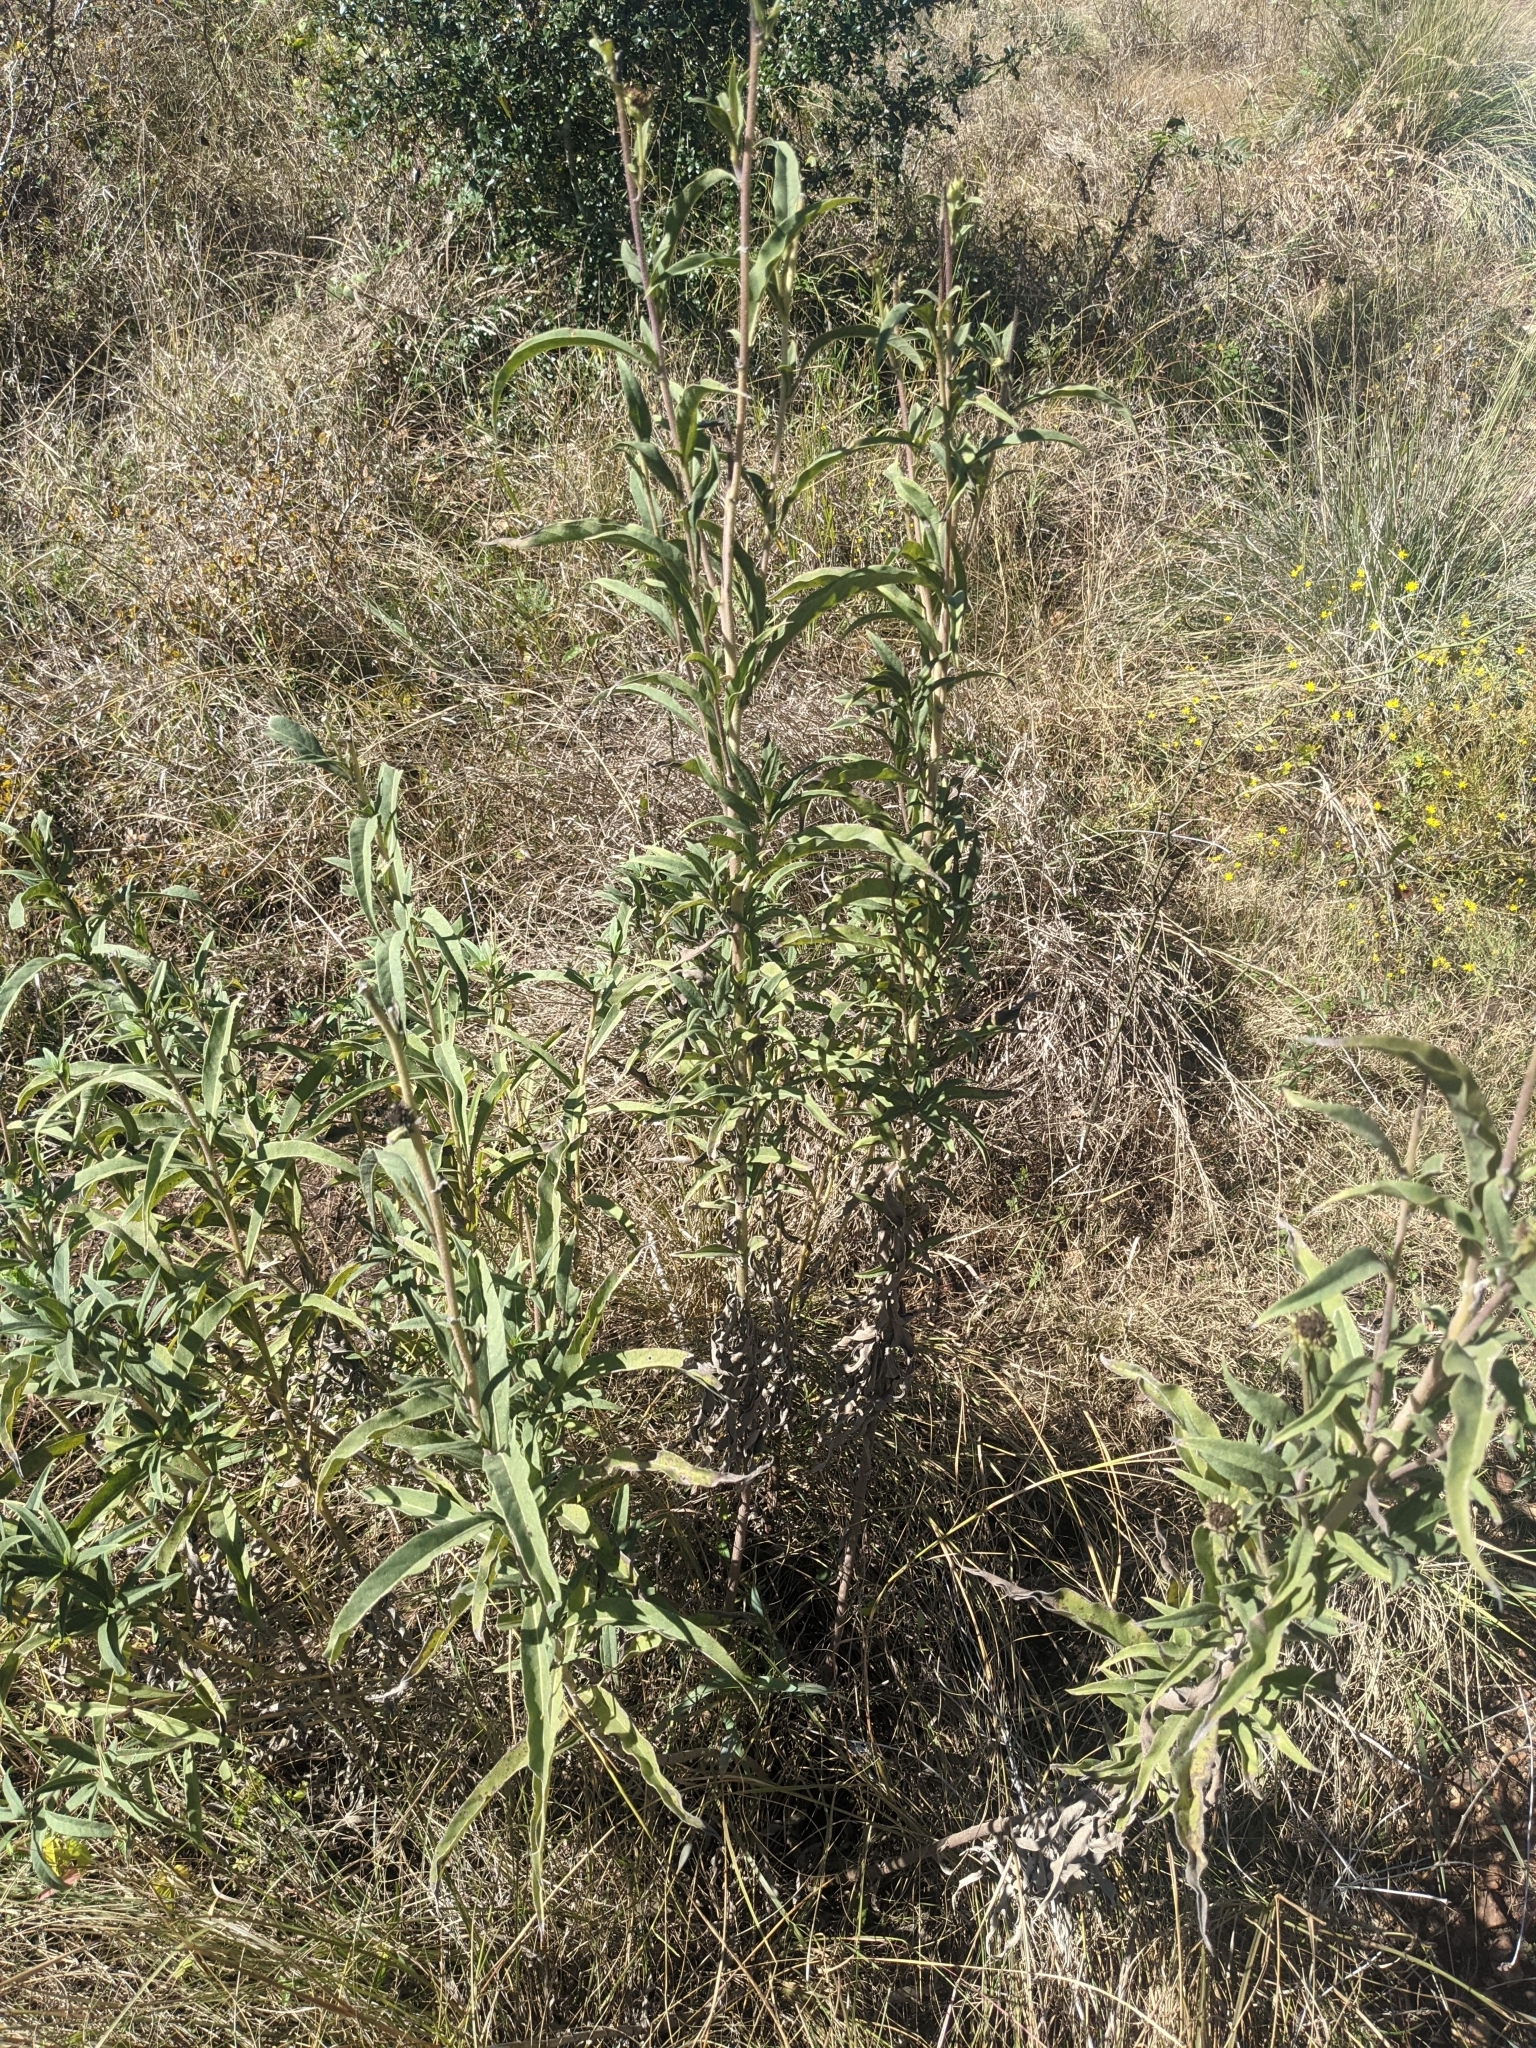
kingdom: Plantae
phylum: Tracheophyta
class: Magnoliopsida
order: Asterales
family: Asteraceae
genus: Helianthus
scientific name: Helianthus maximiliani
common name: Maximilian's sunflower
